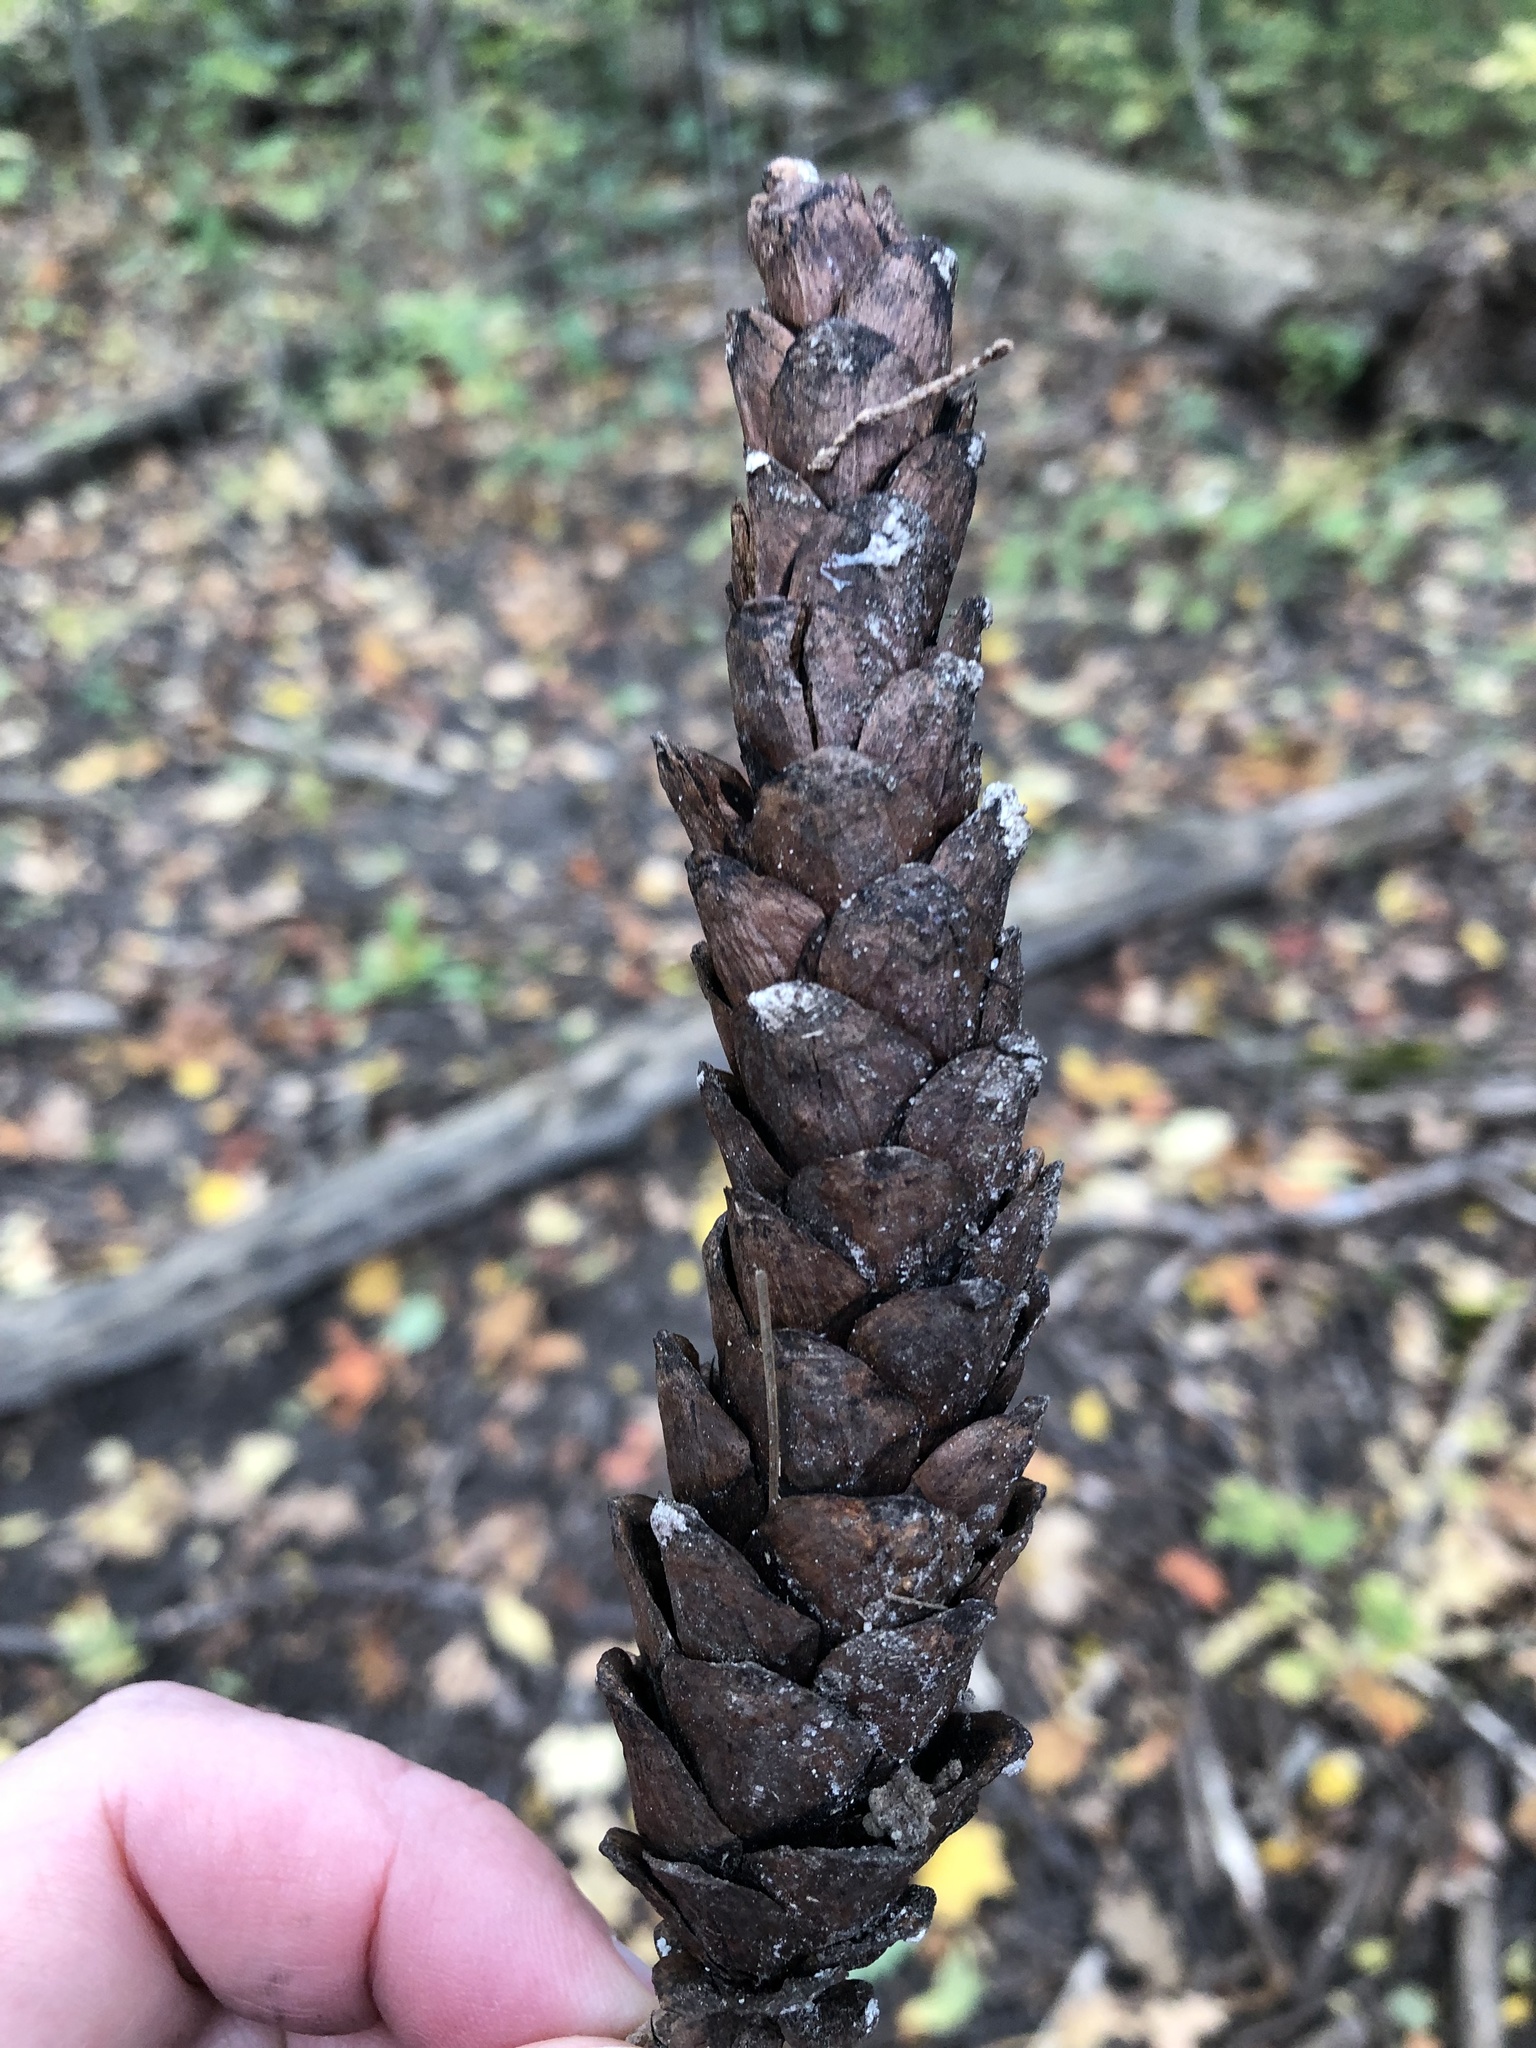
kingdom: Plantae
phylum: Tracheophyta
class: Pinopsida
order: Pinales
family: Pinaceae
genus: Pinus
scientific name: Pinus strobus
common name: Weymouth pine
